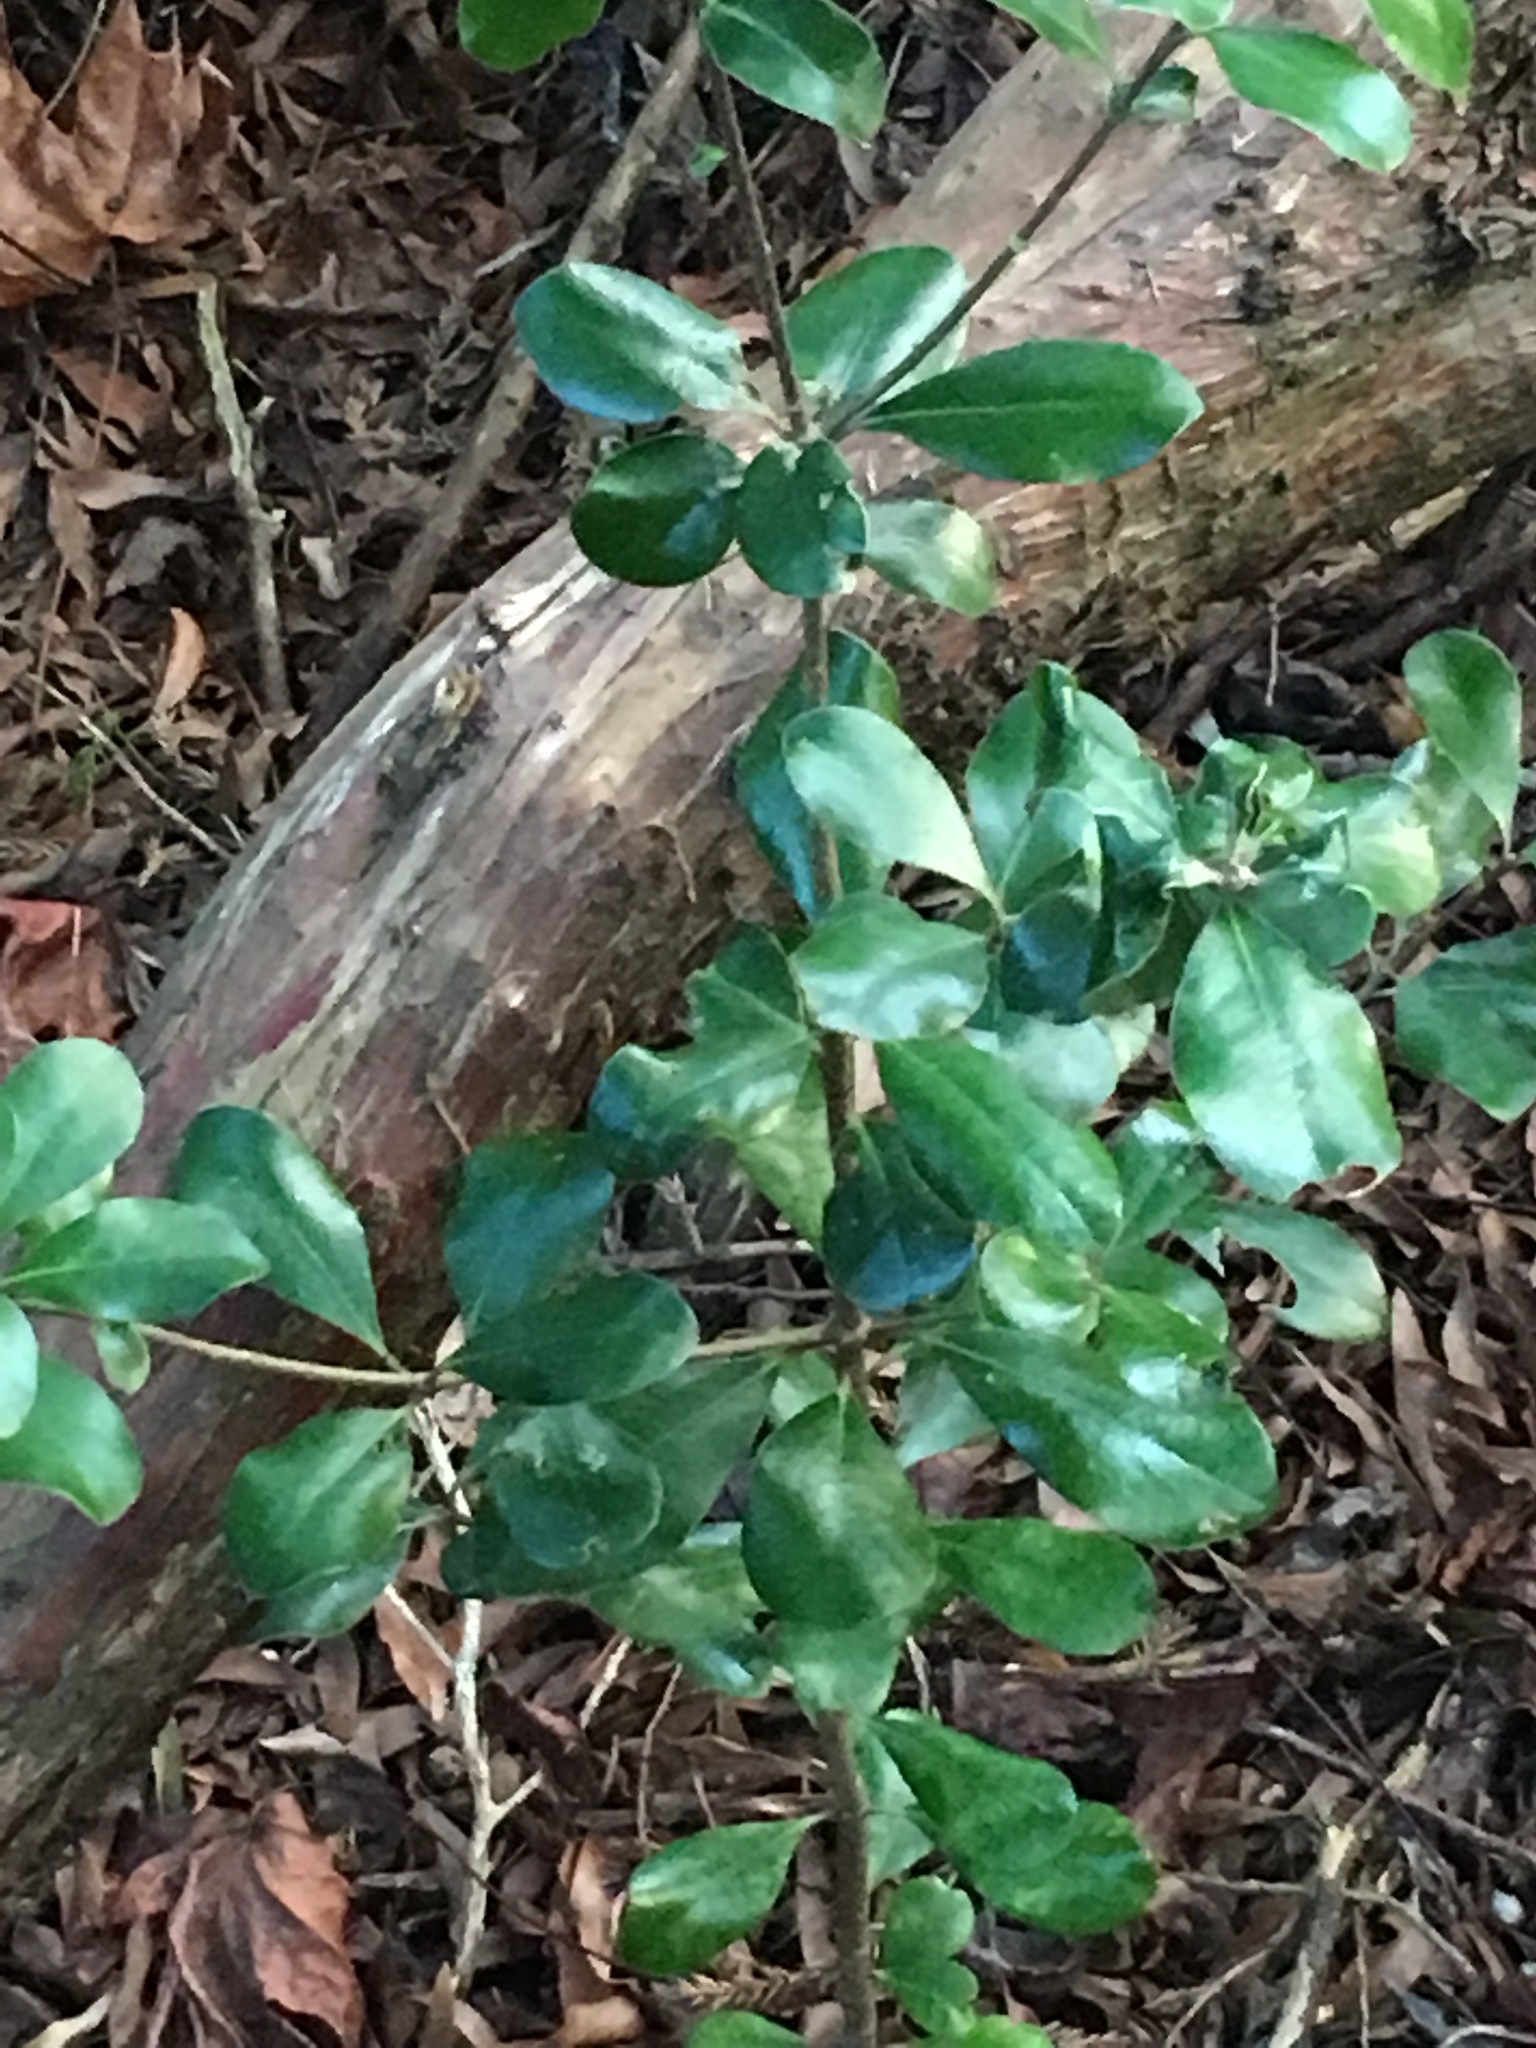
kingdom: Plantae
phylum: Tracheophyta
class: Magnoliopsida
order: Apiales
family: Pittosporaceae
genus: Pittosporum
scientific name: Pittosporum crassifolium
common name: Karo
